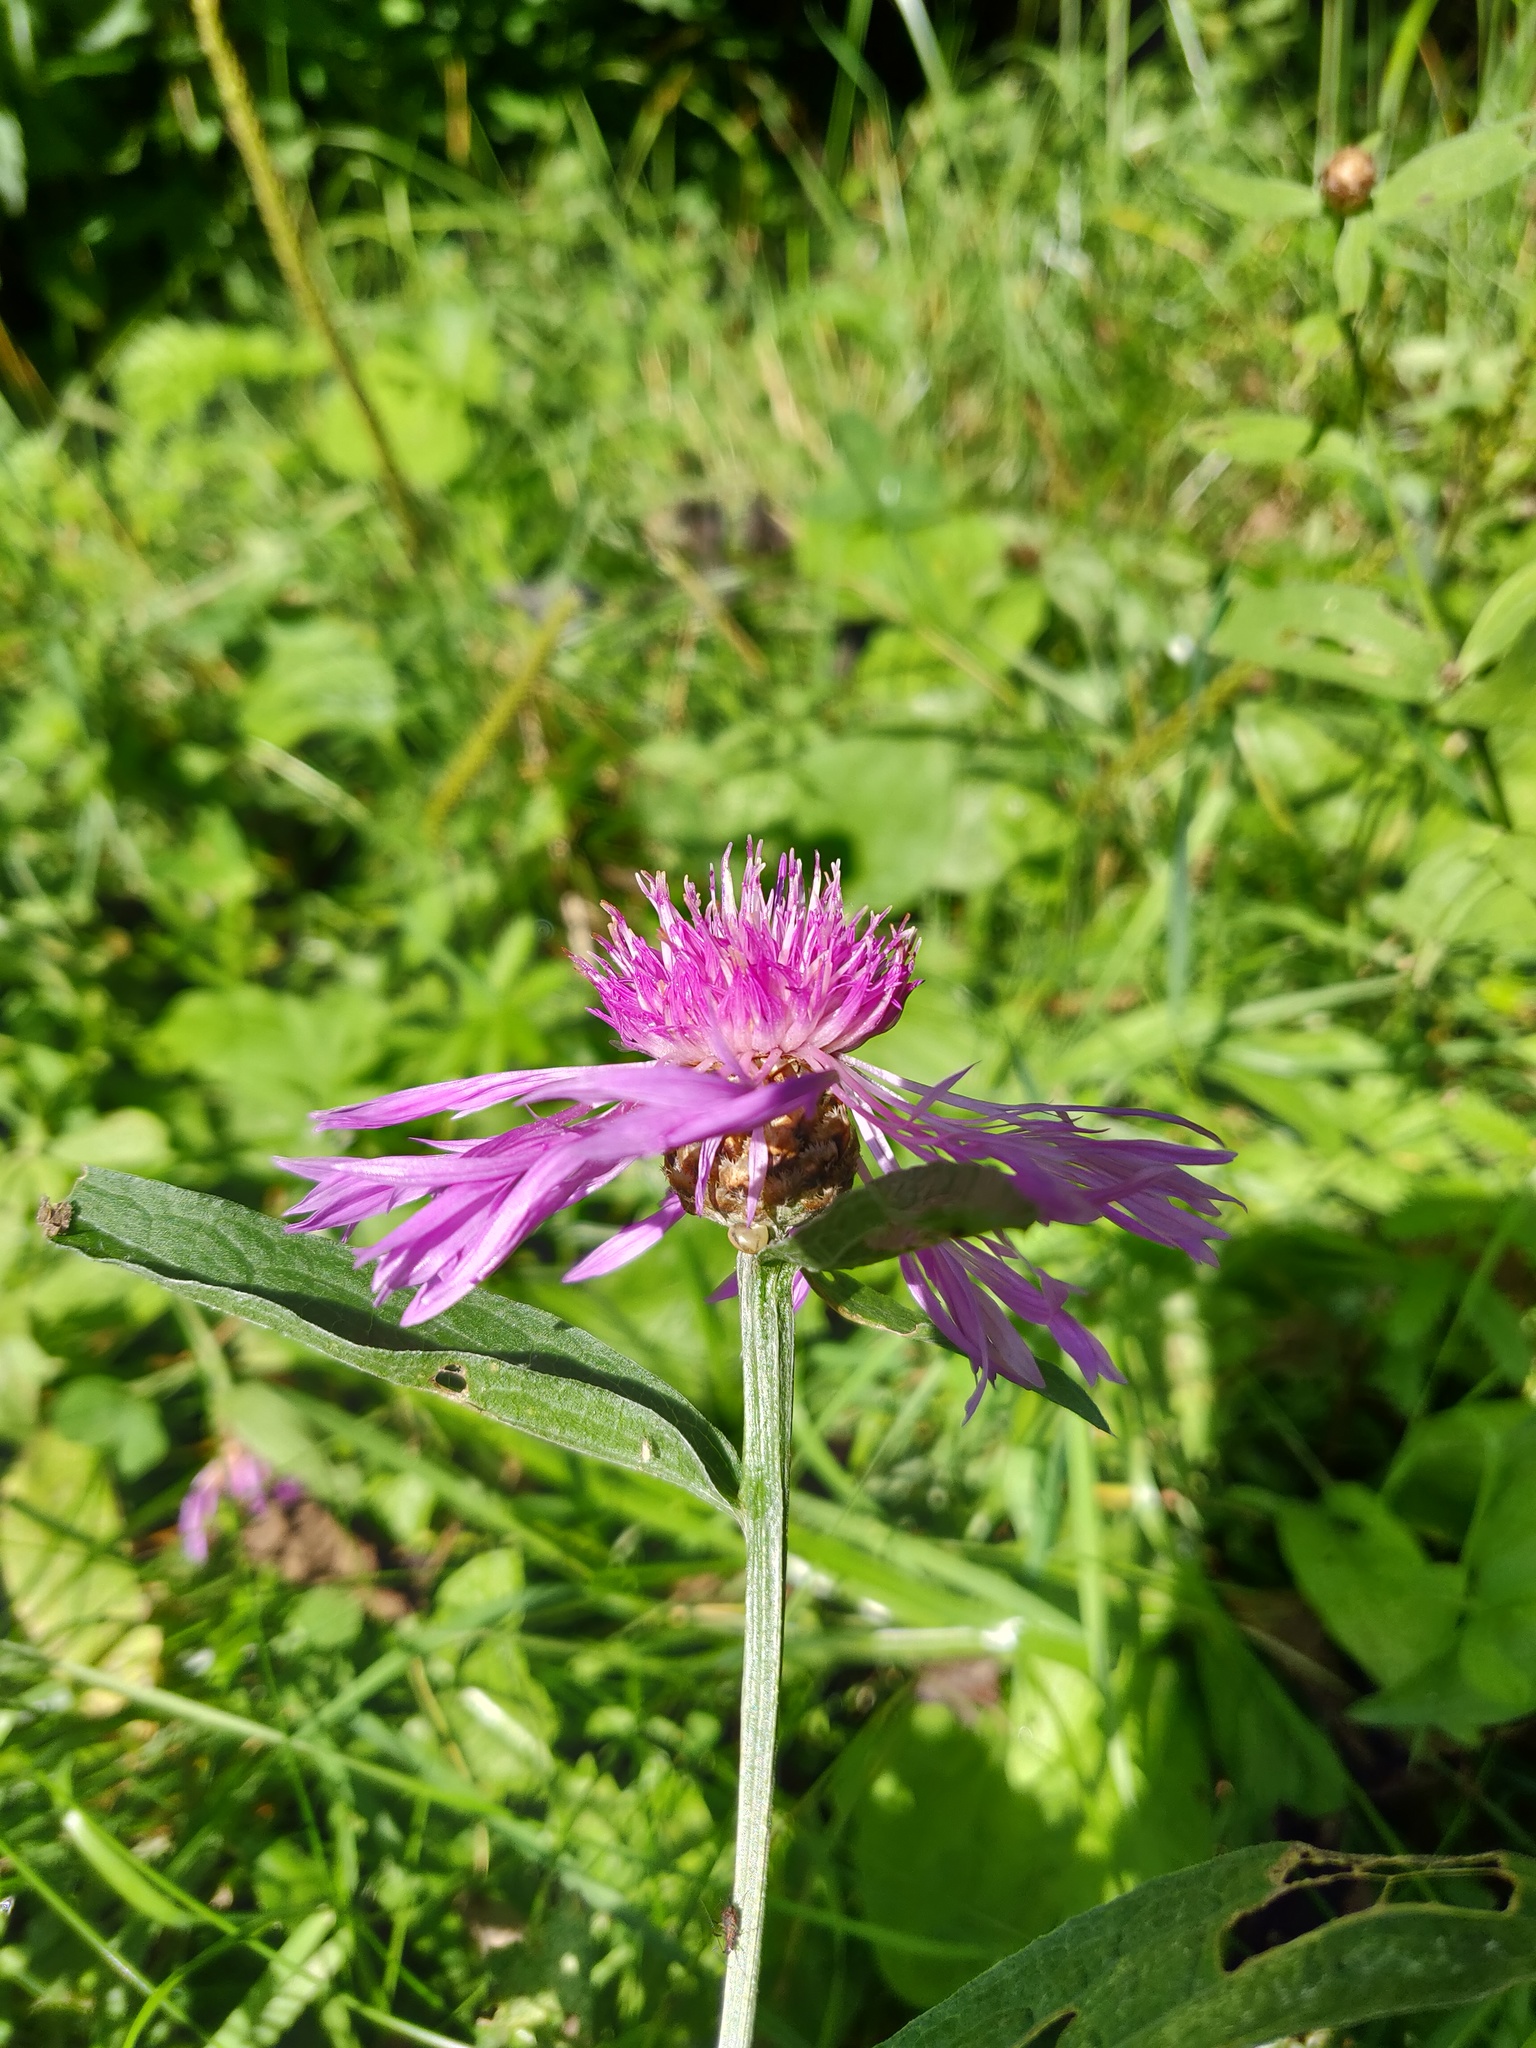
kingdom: Plantae
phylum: Tracheophyta
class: Magnoliopsida
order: Asterales
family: Asteraceae
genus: Centaurea
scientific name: Centaurea jacea
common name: Brown knapweed
